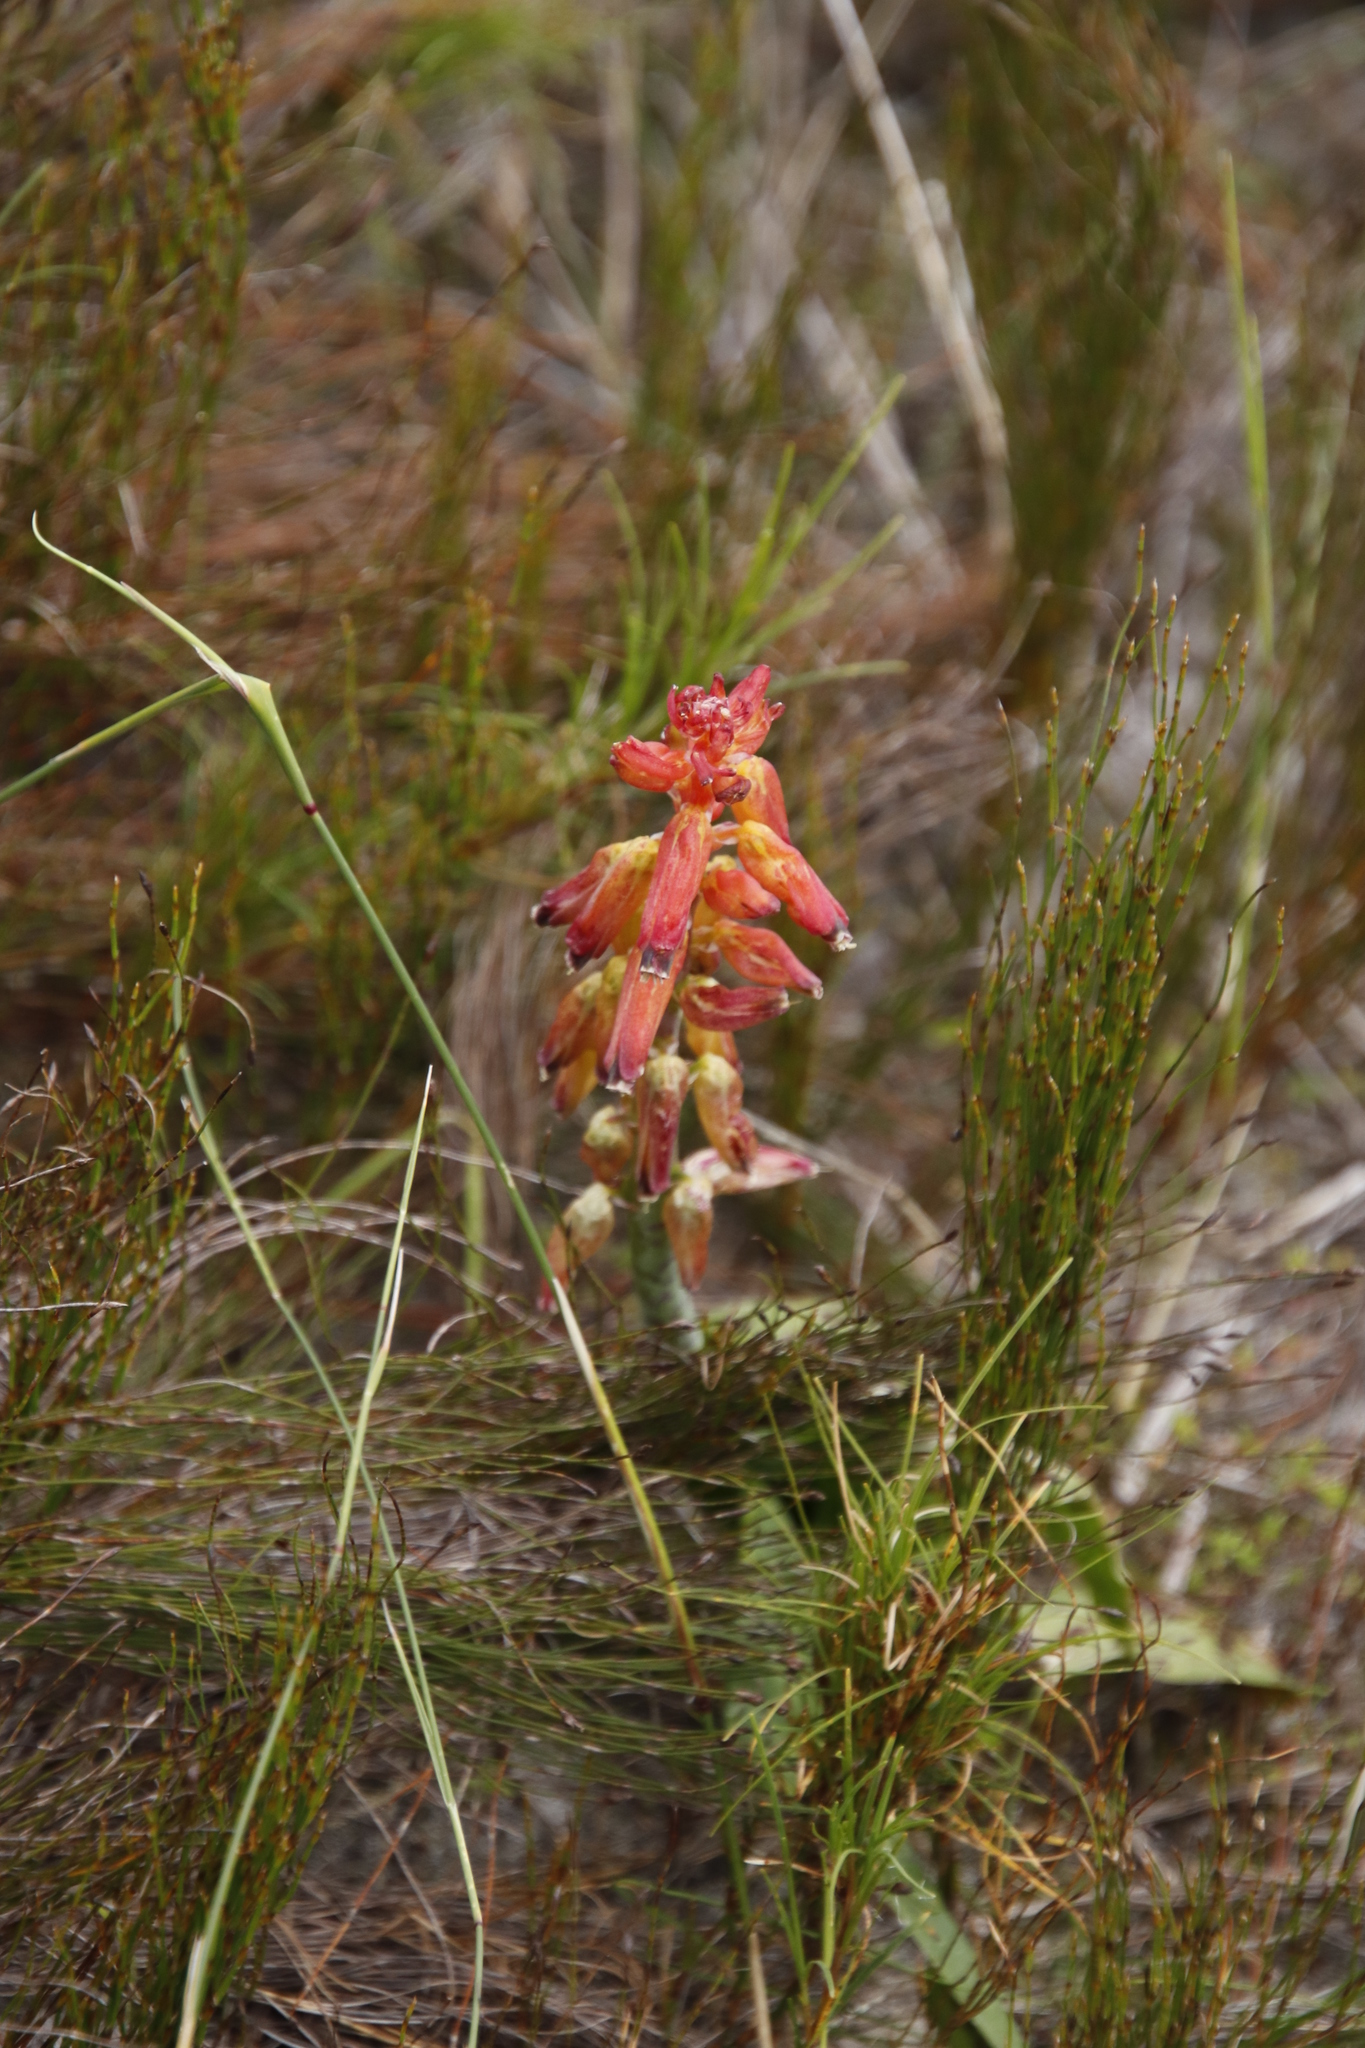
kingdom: Plantae
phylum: Tracheophyta
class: Liliopsida
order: Asparagales
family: Asparagaceae
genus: Lachenalia
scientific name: Lachenalia bulbifera
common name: Red lachenalia
